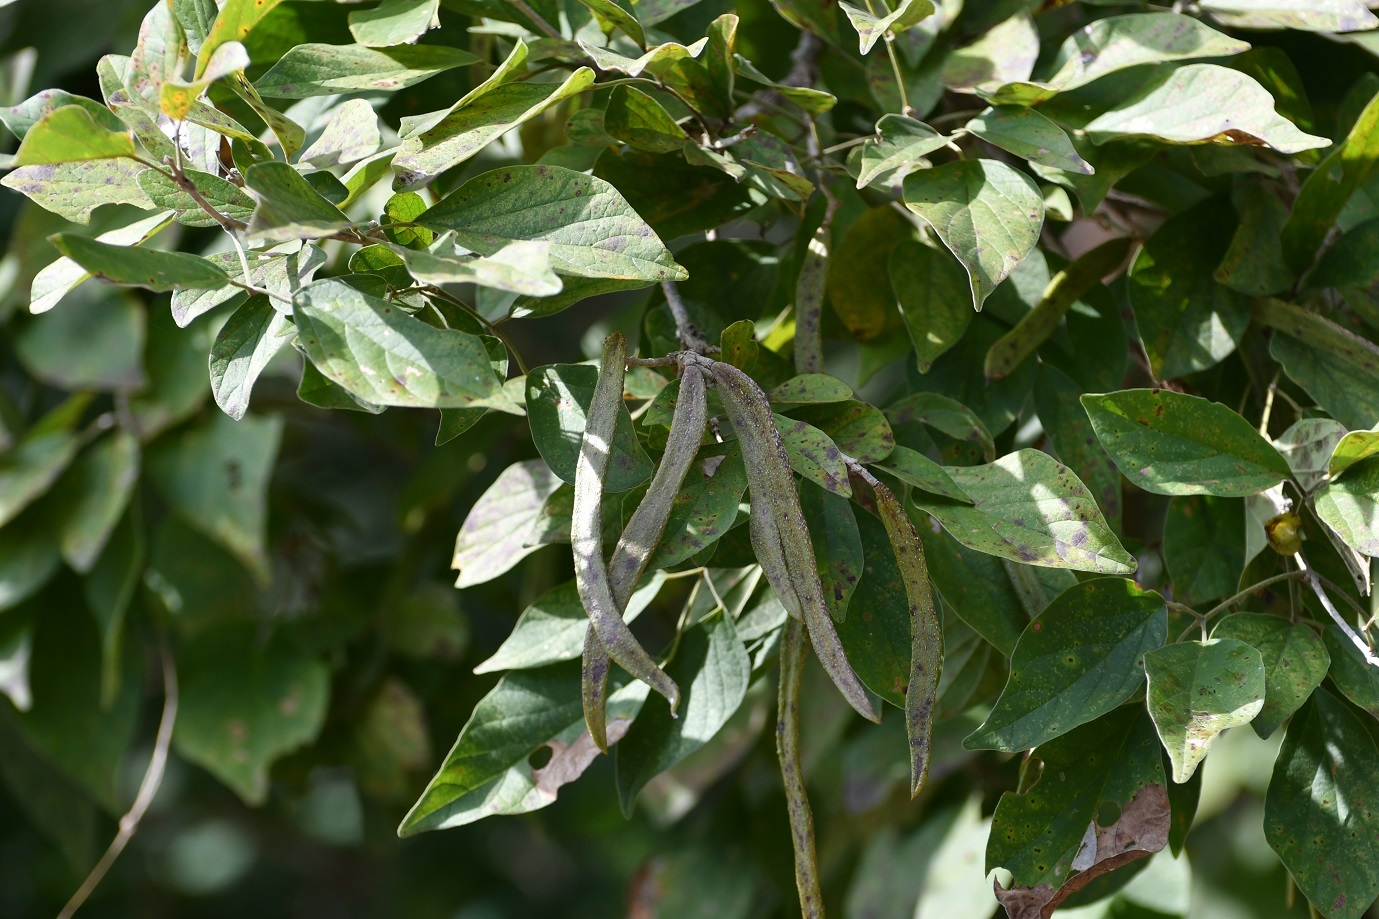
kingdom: Plantae
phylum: Tracheophyta
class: Magnoliopsida
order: Lamiales
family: Bignoniaceae
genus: Handroanthus
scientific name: Handroanthus impetiginosum
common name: Pink trumpet tree
